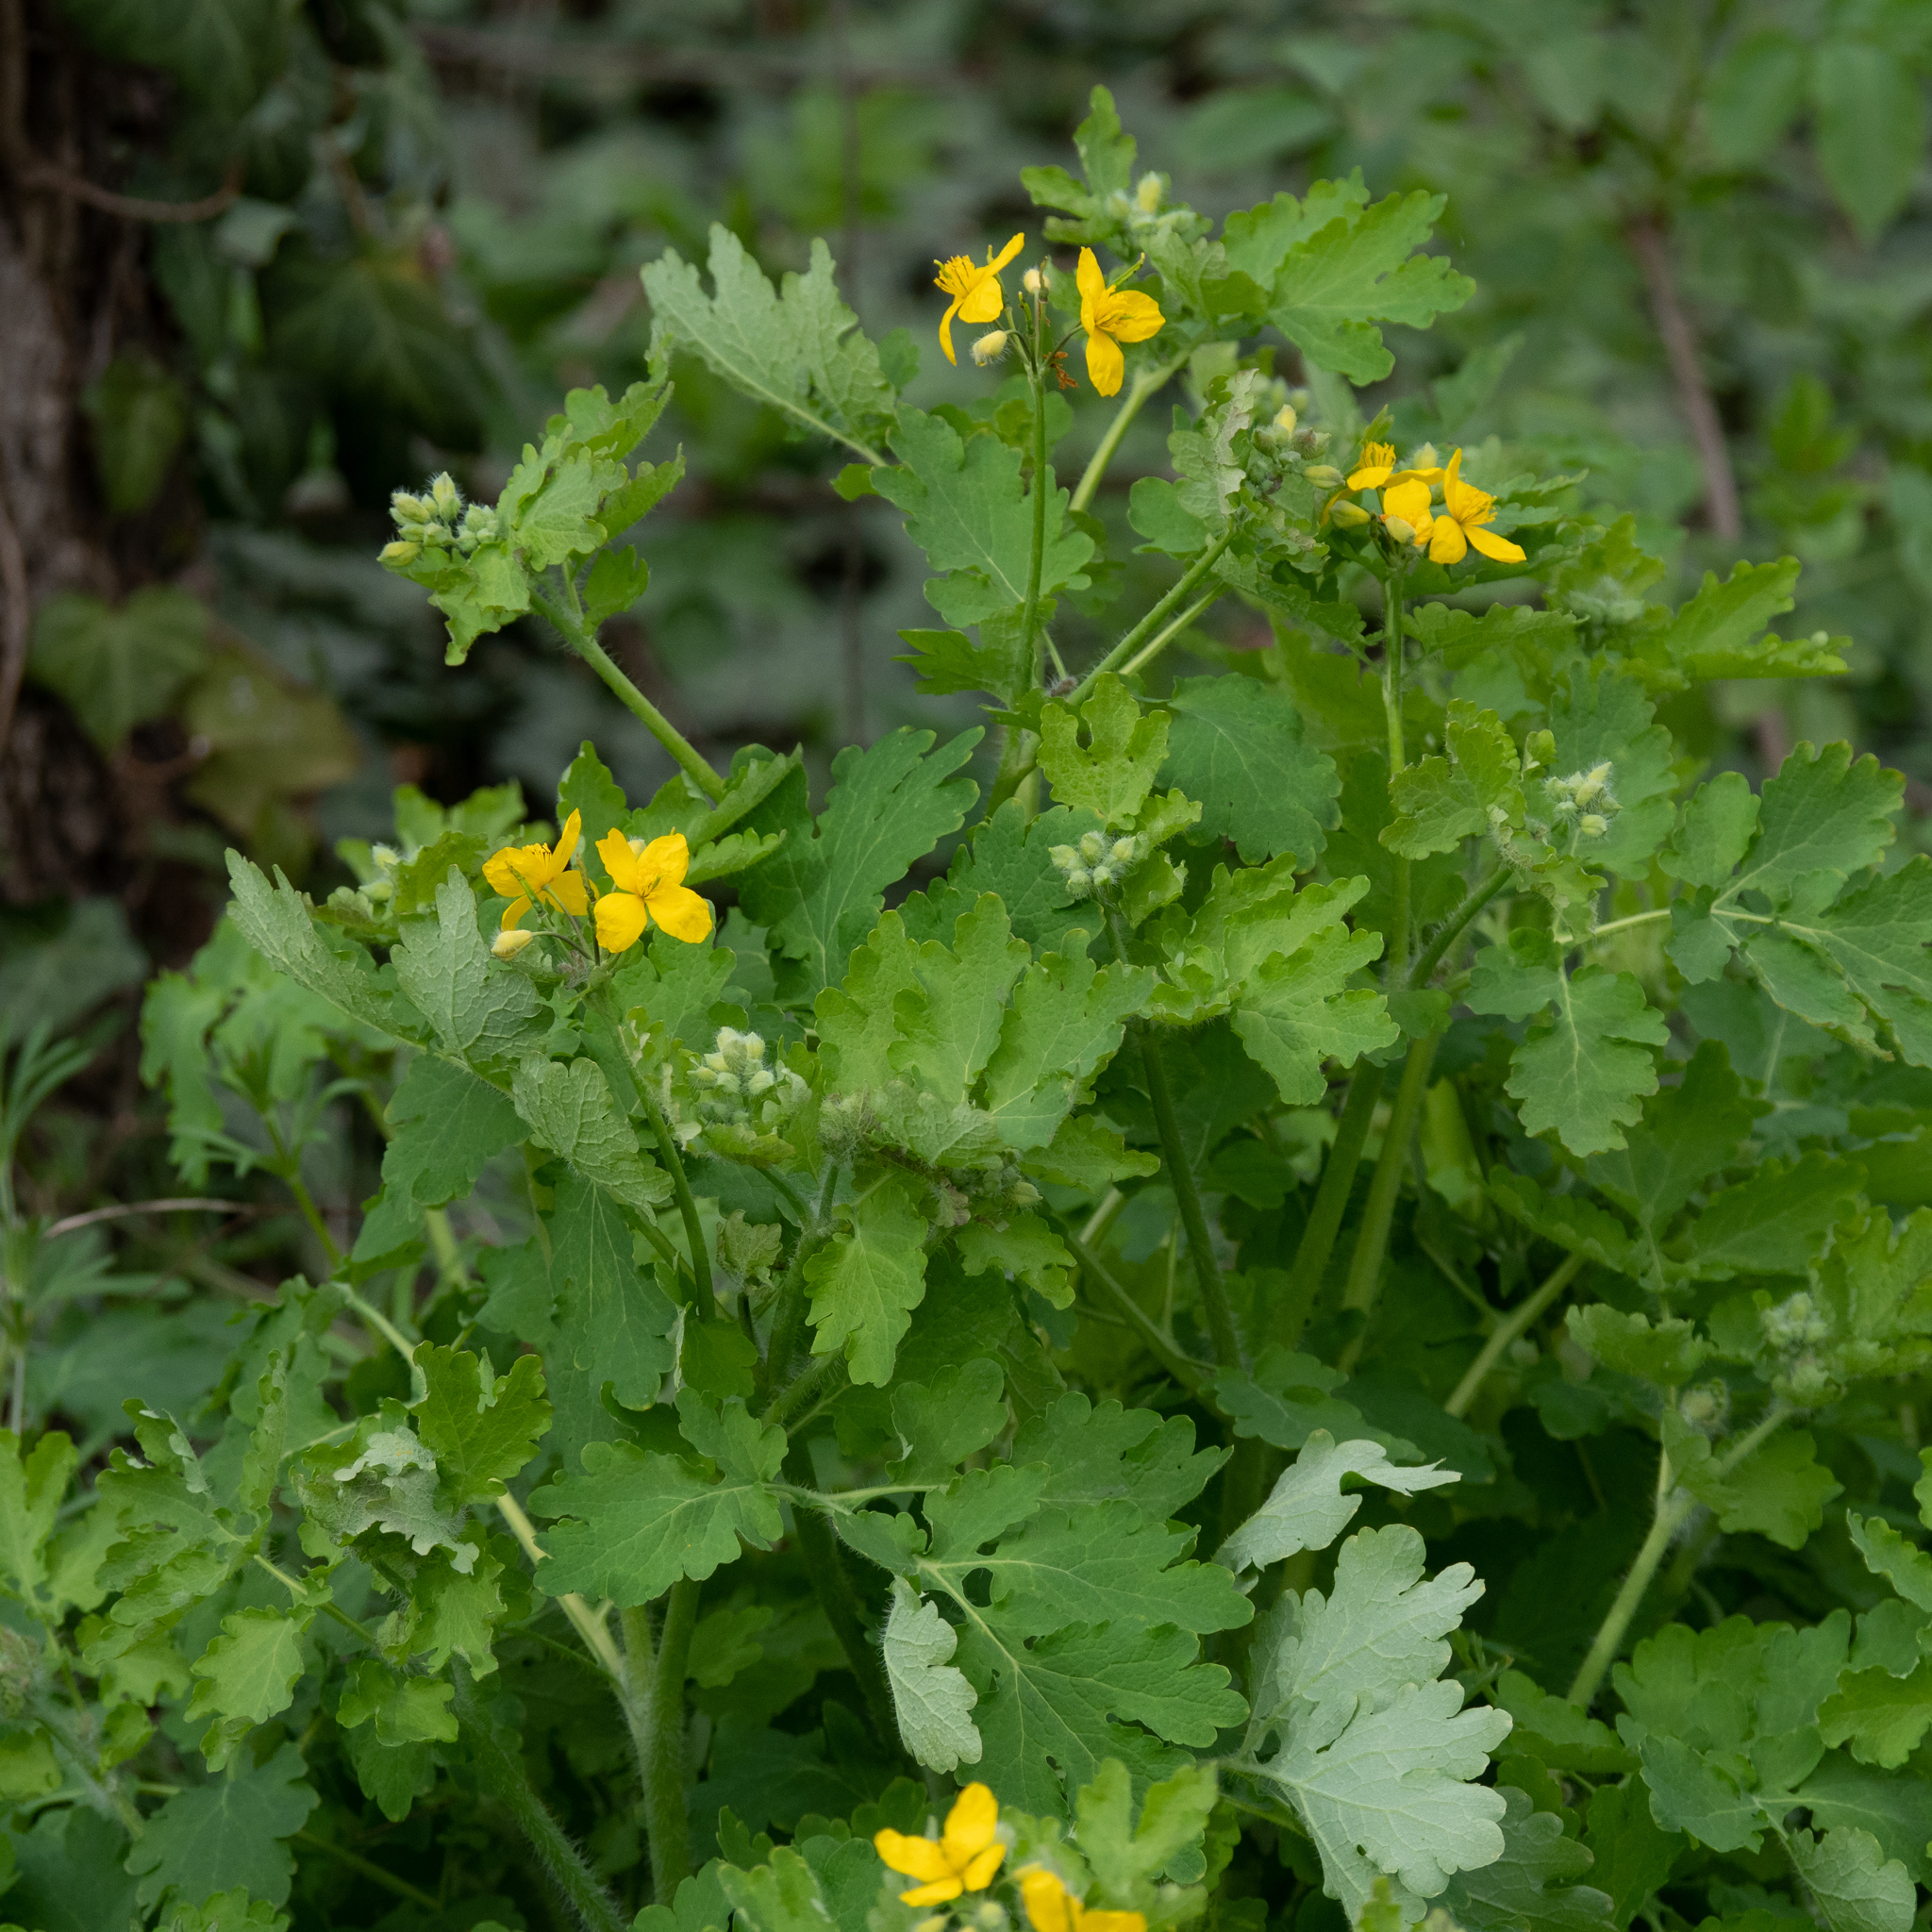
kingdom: Plantae
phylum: Tracheophyta
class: Magnoliopsida
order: Ranunculales
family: Papaveraceae
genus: Chelidonium
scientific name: Chelidonium majus
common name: Greater celandine
